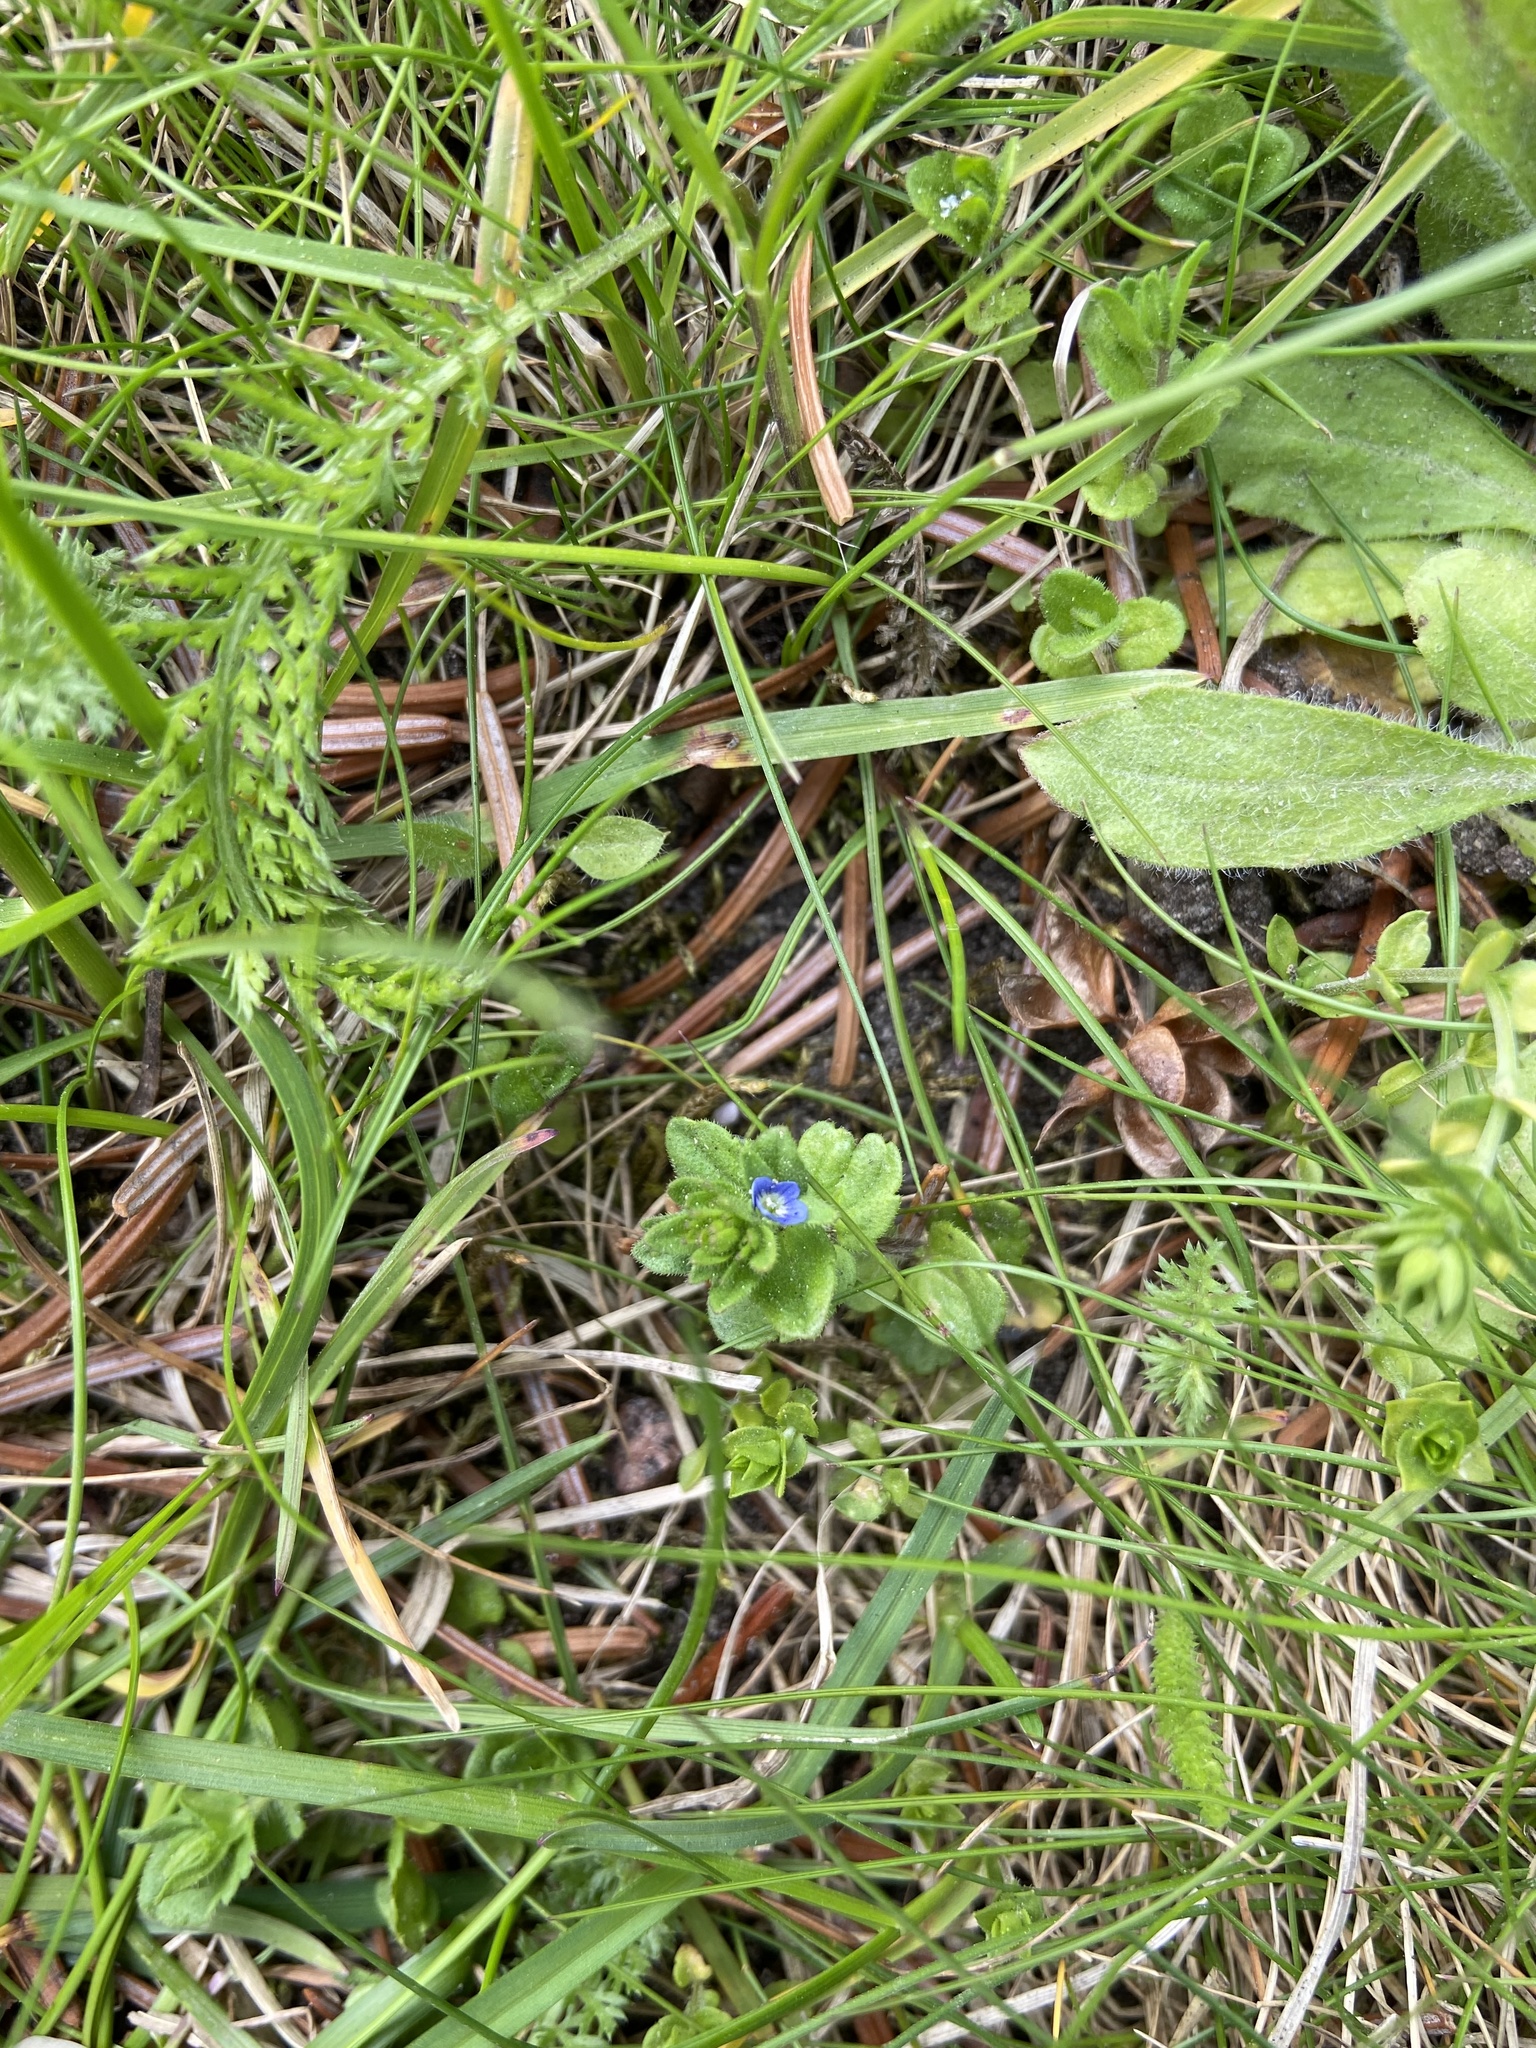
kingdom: Plantae
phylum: Tracheophyta
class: Magnoliopsida
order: Lamiales
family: Plantaginaceae
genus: Veronica
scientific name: Veronica arvensis
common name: Corn speedwell
